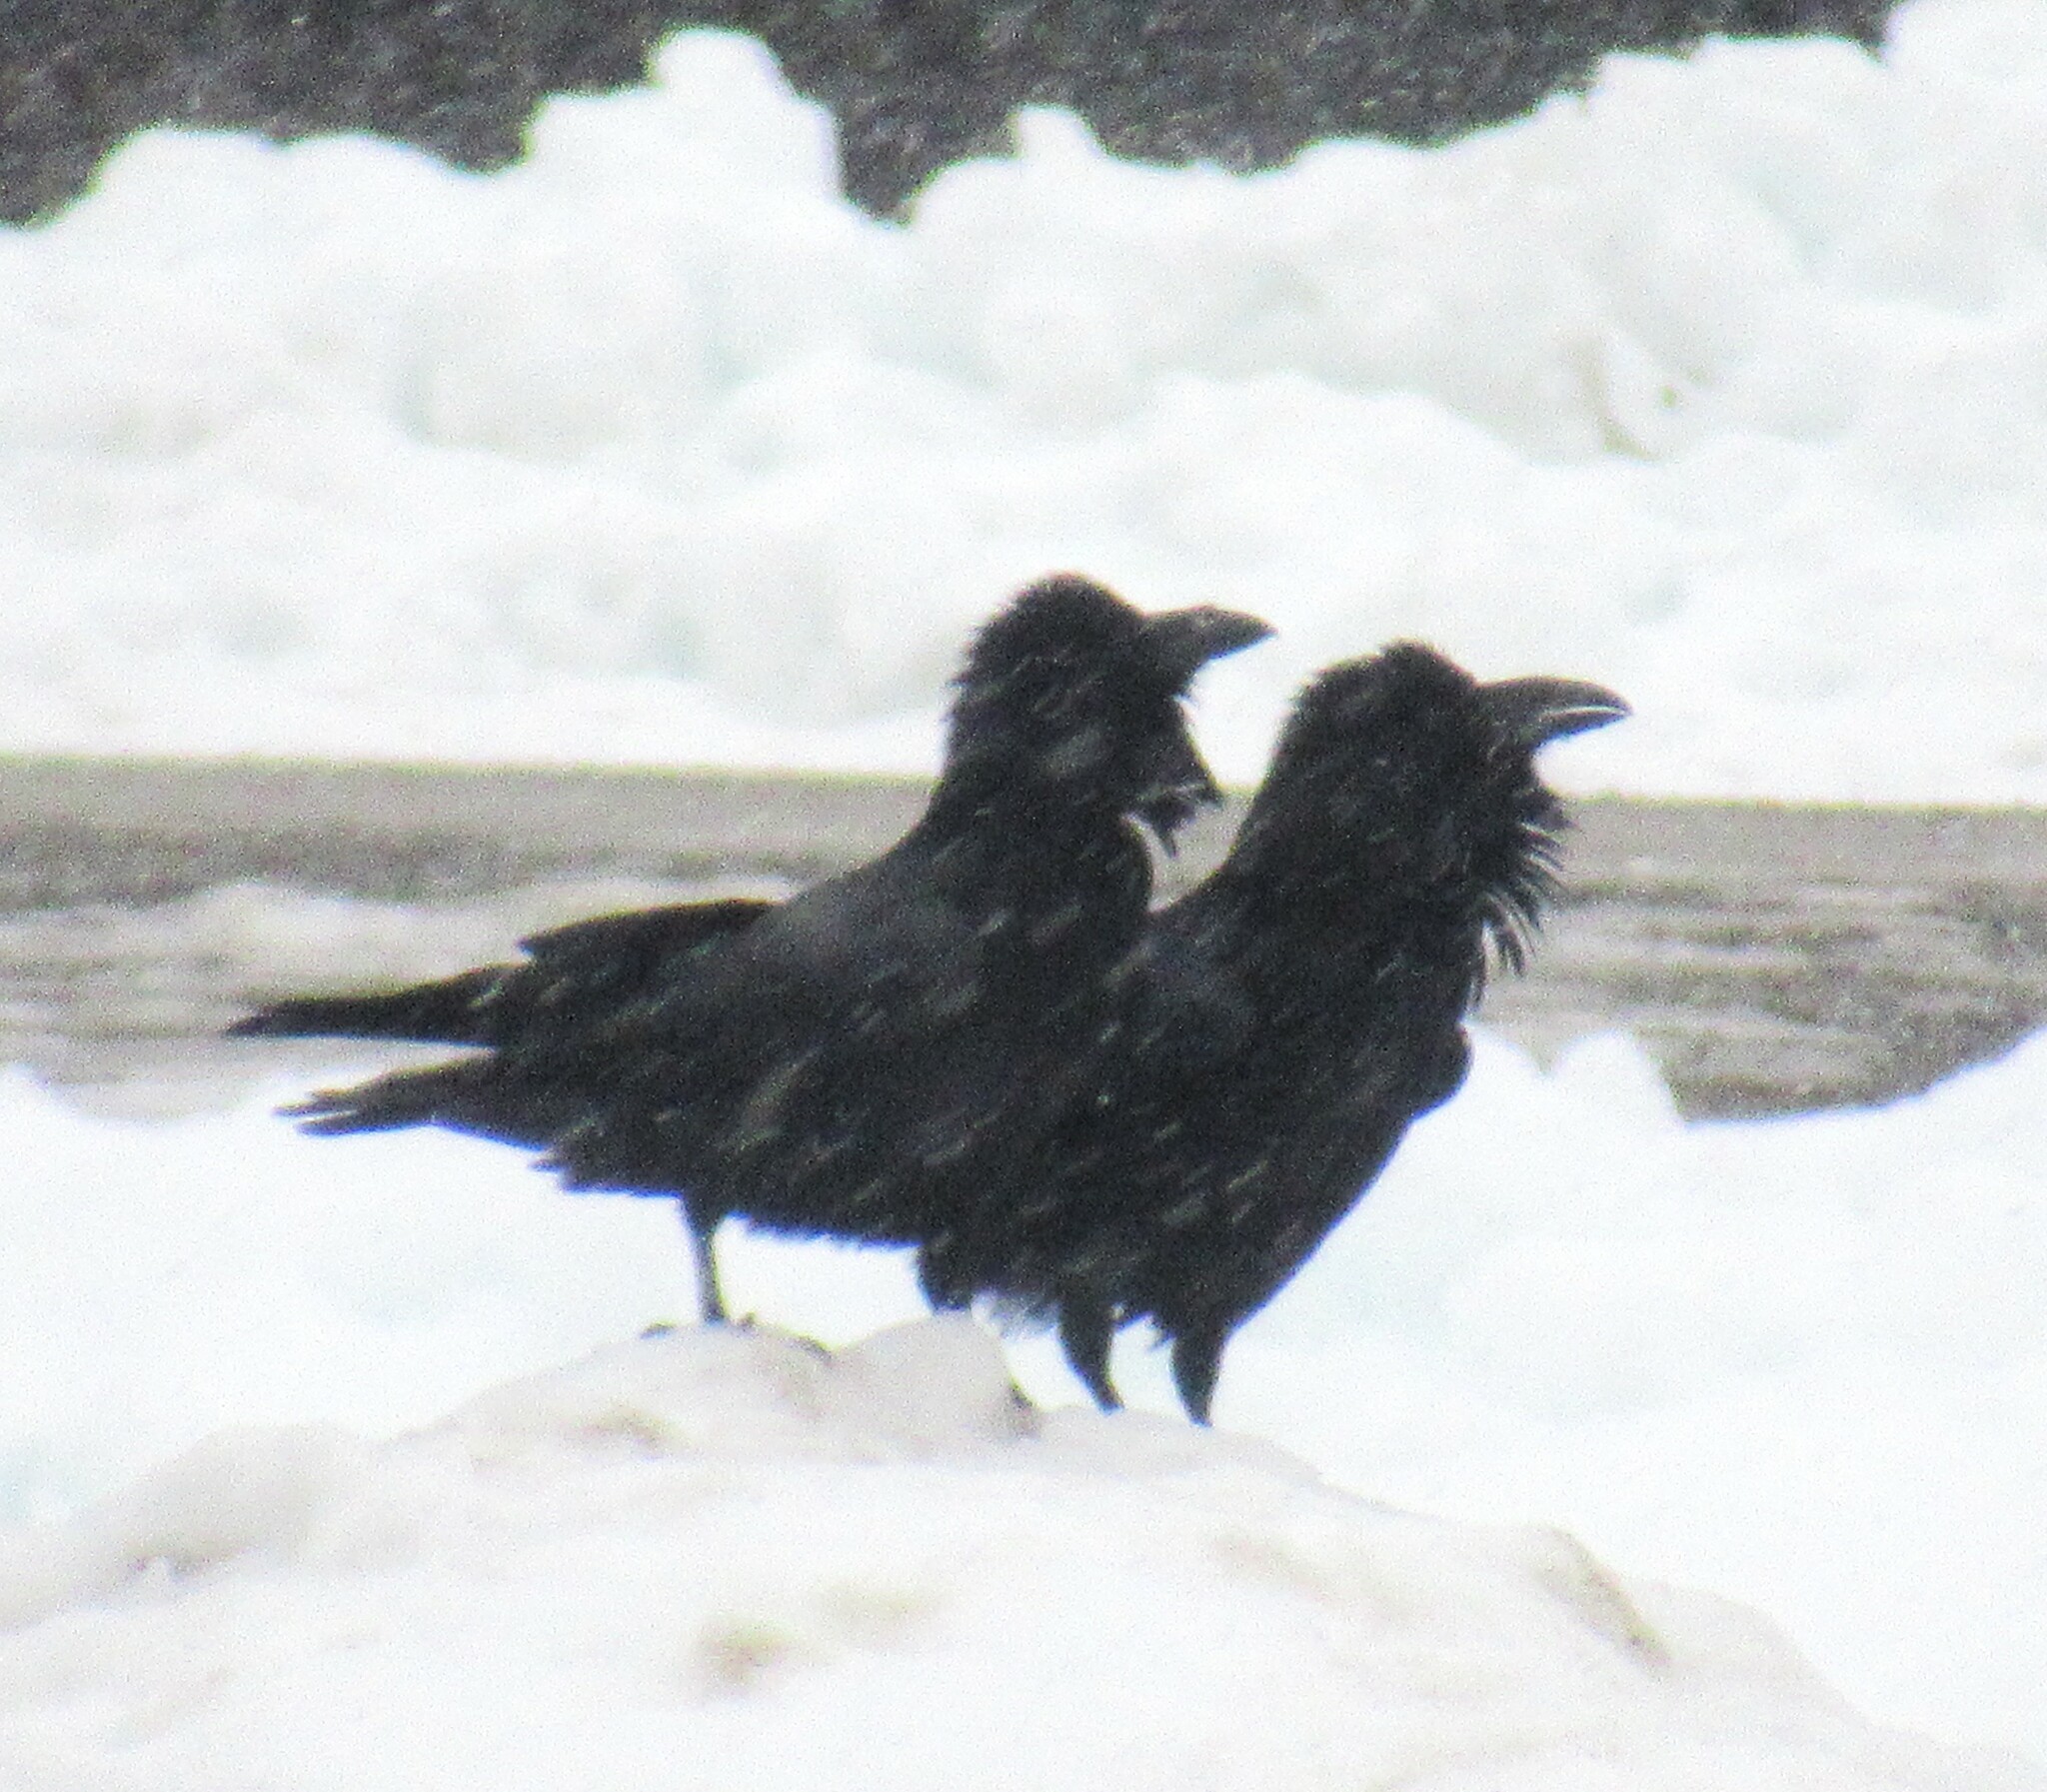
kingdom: Animalia
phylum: Chordata
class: Aves
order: Passeriformes
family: Corvidae
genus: Corvus
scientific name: Corvus corax
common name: Common raven
